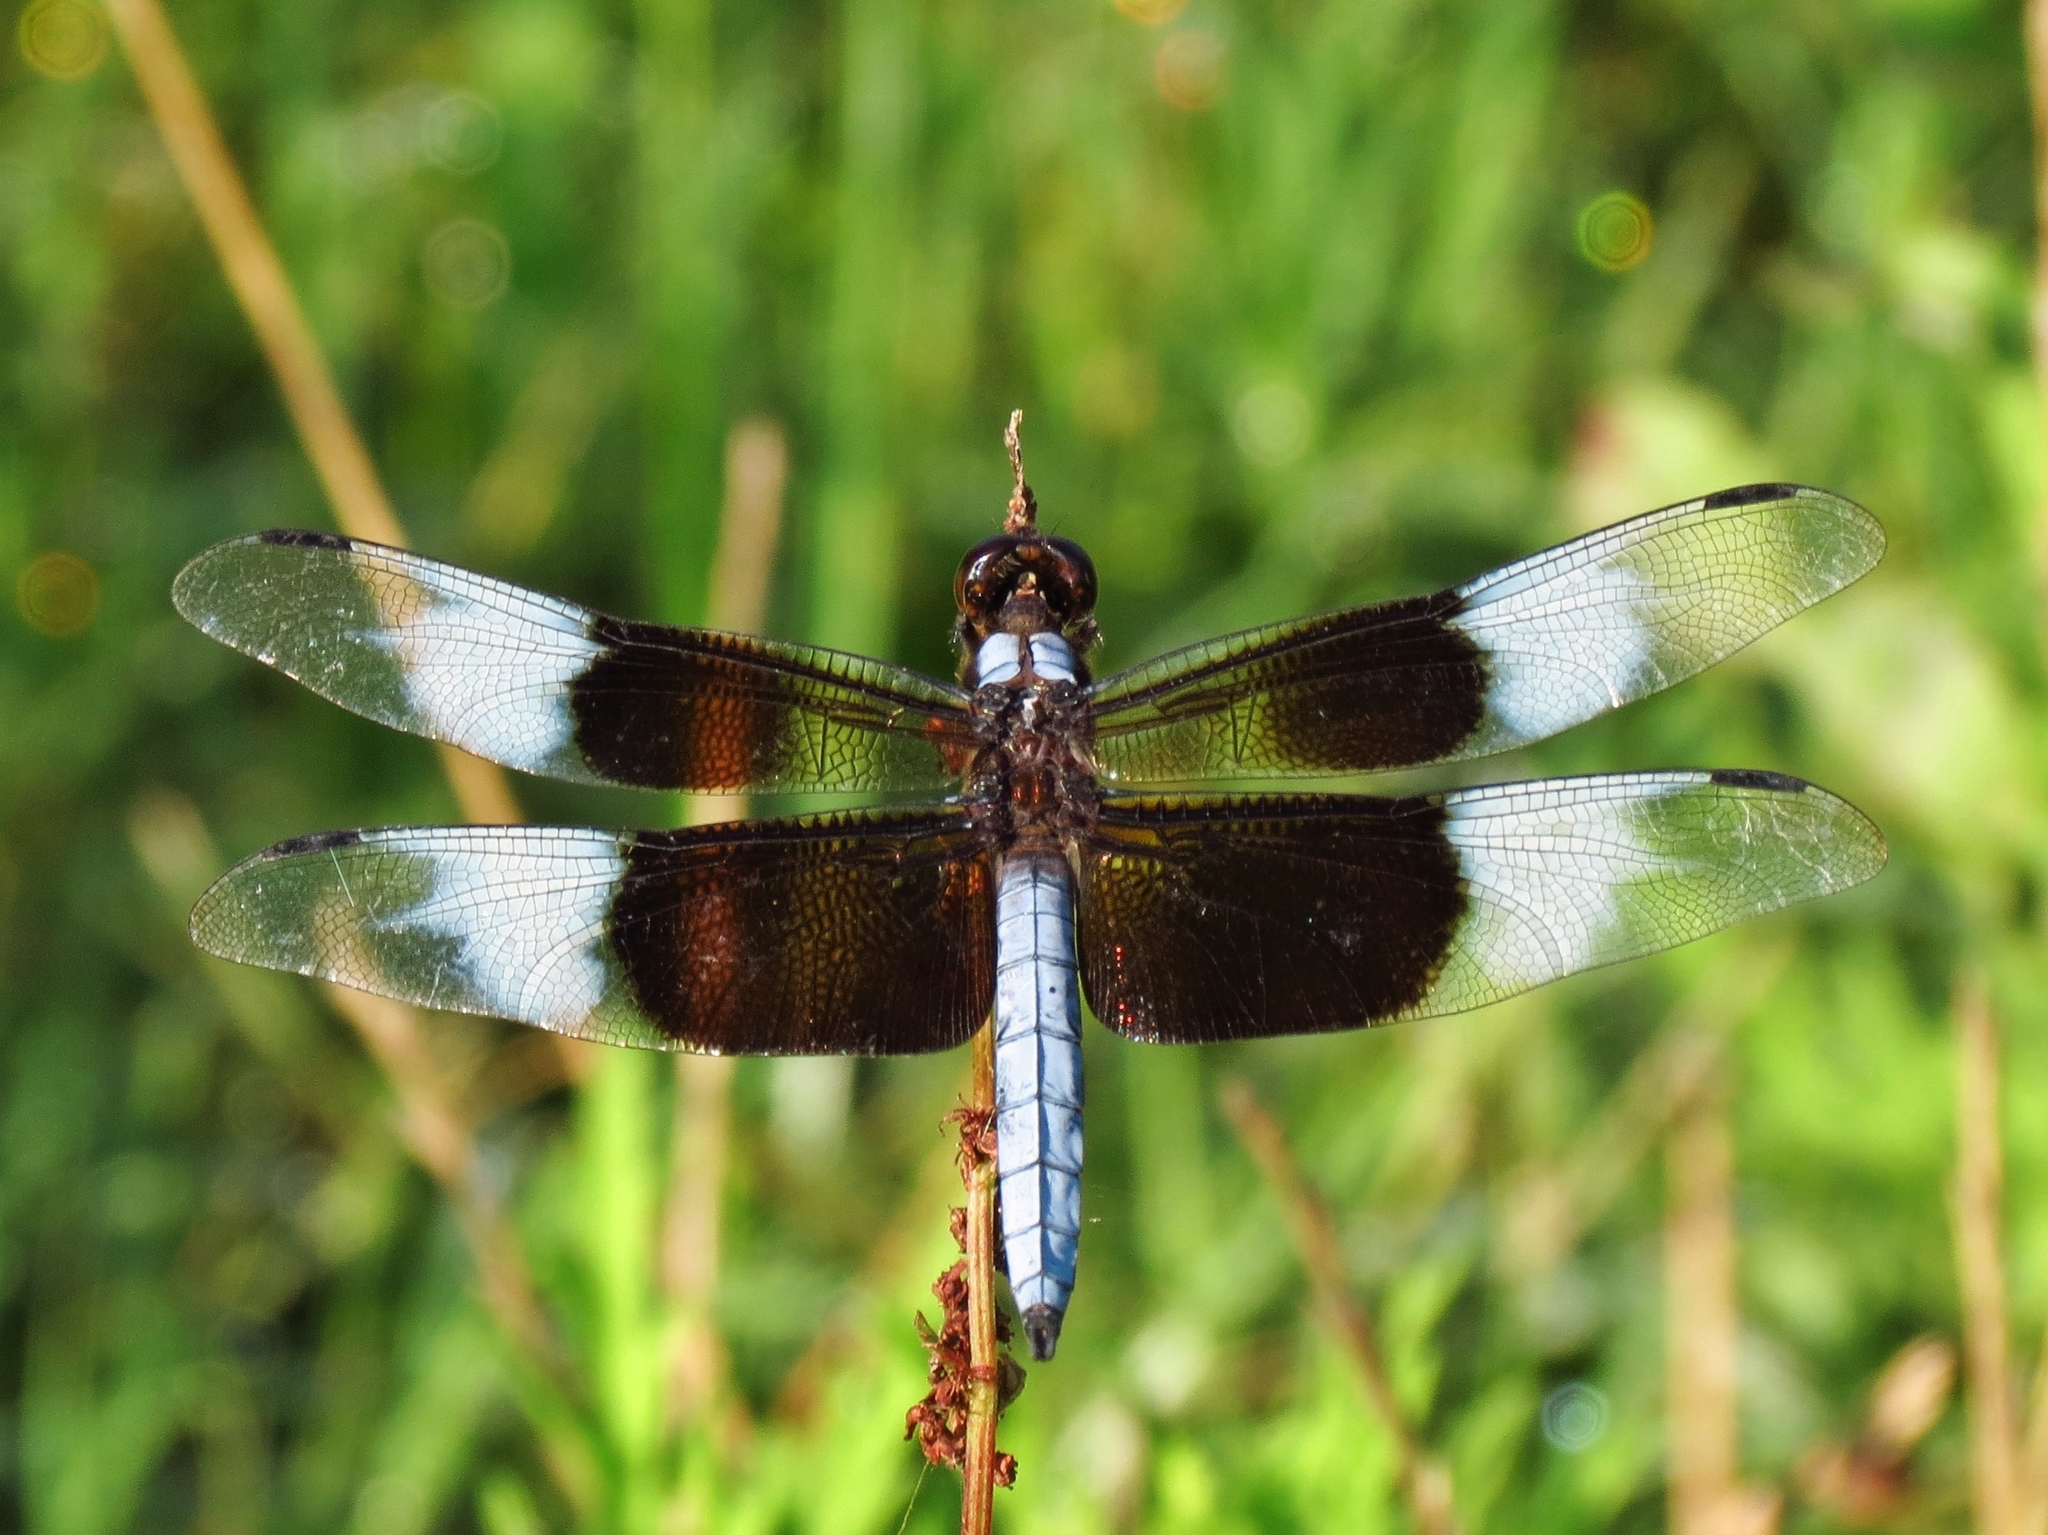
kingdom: Animalia
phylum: Arthropoda
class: Insecta
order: Odonata
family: Libellulidae
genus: Libellula
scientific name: Libellula luctuosa
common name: Widow skimmer
